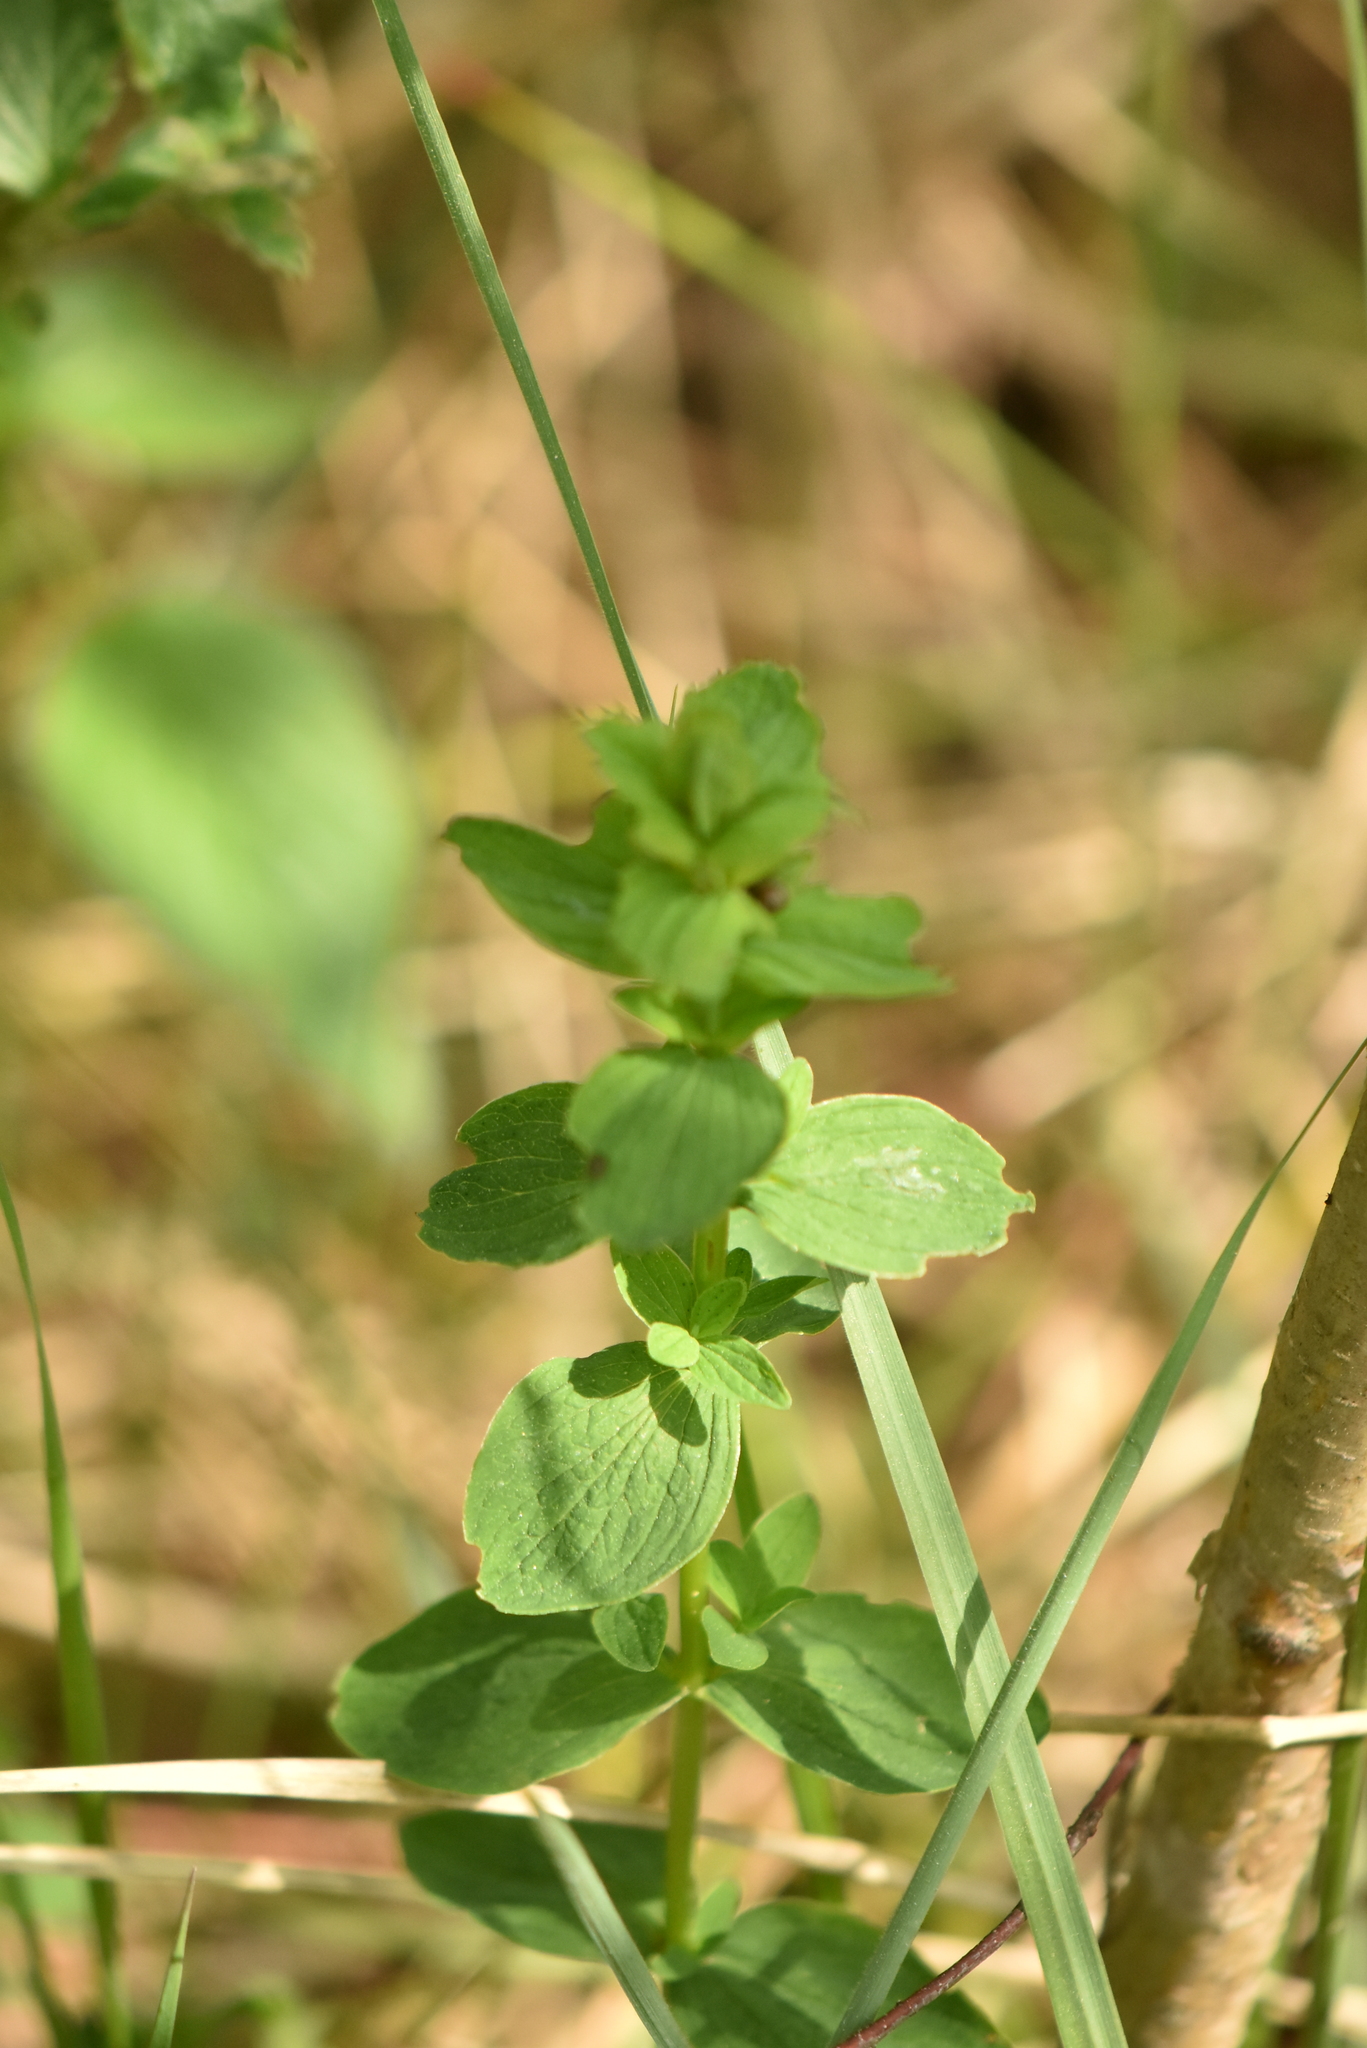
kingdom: Plantae
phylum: Tracheophyta
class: Magnoliopsida
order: Malpighiales
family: Hypericaceae
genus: Hypericum
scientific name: Hypericum maculatum
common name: Imperforate st. john's-wort
